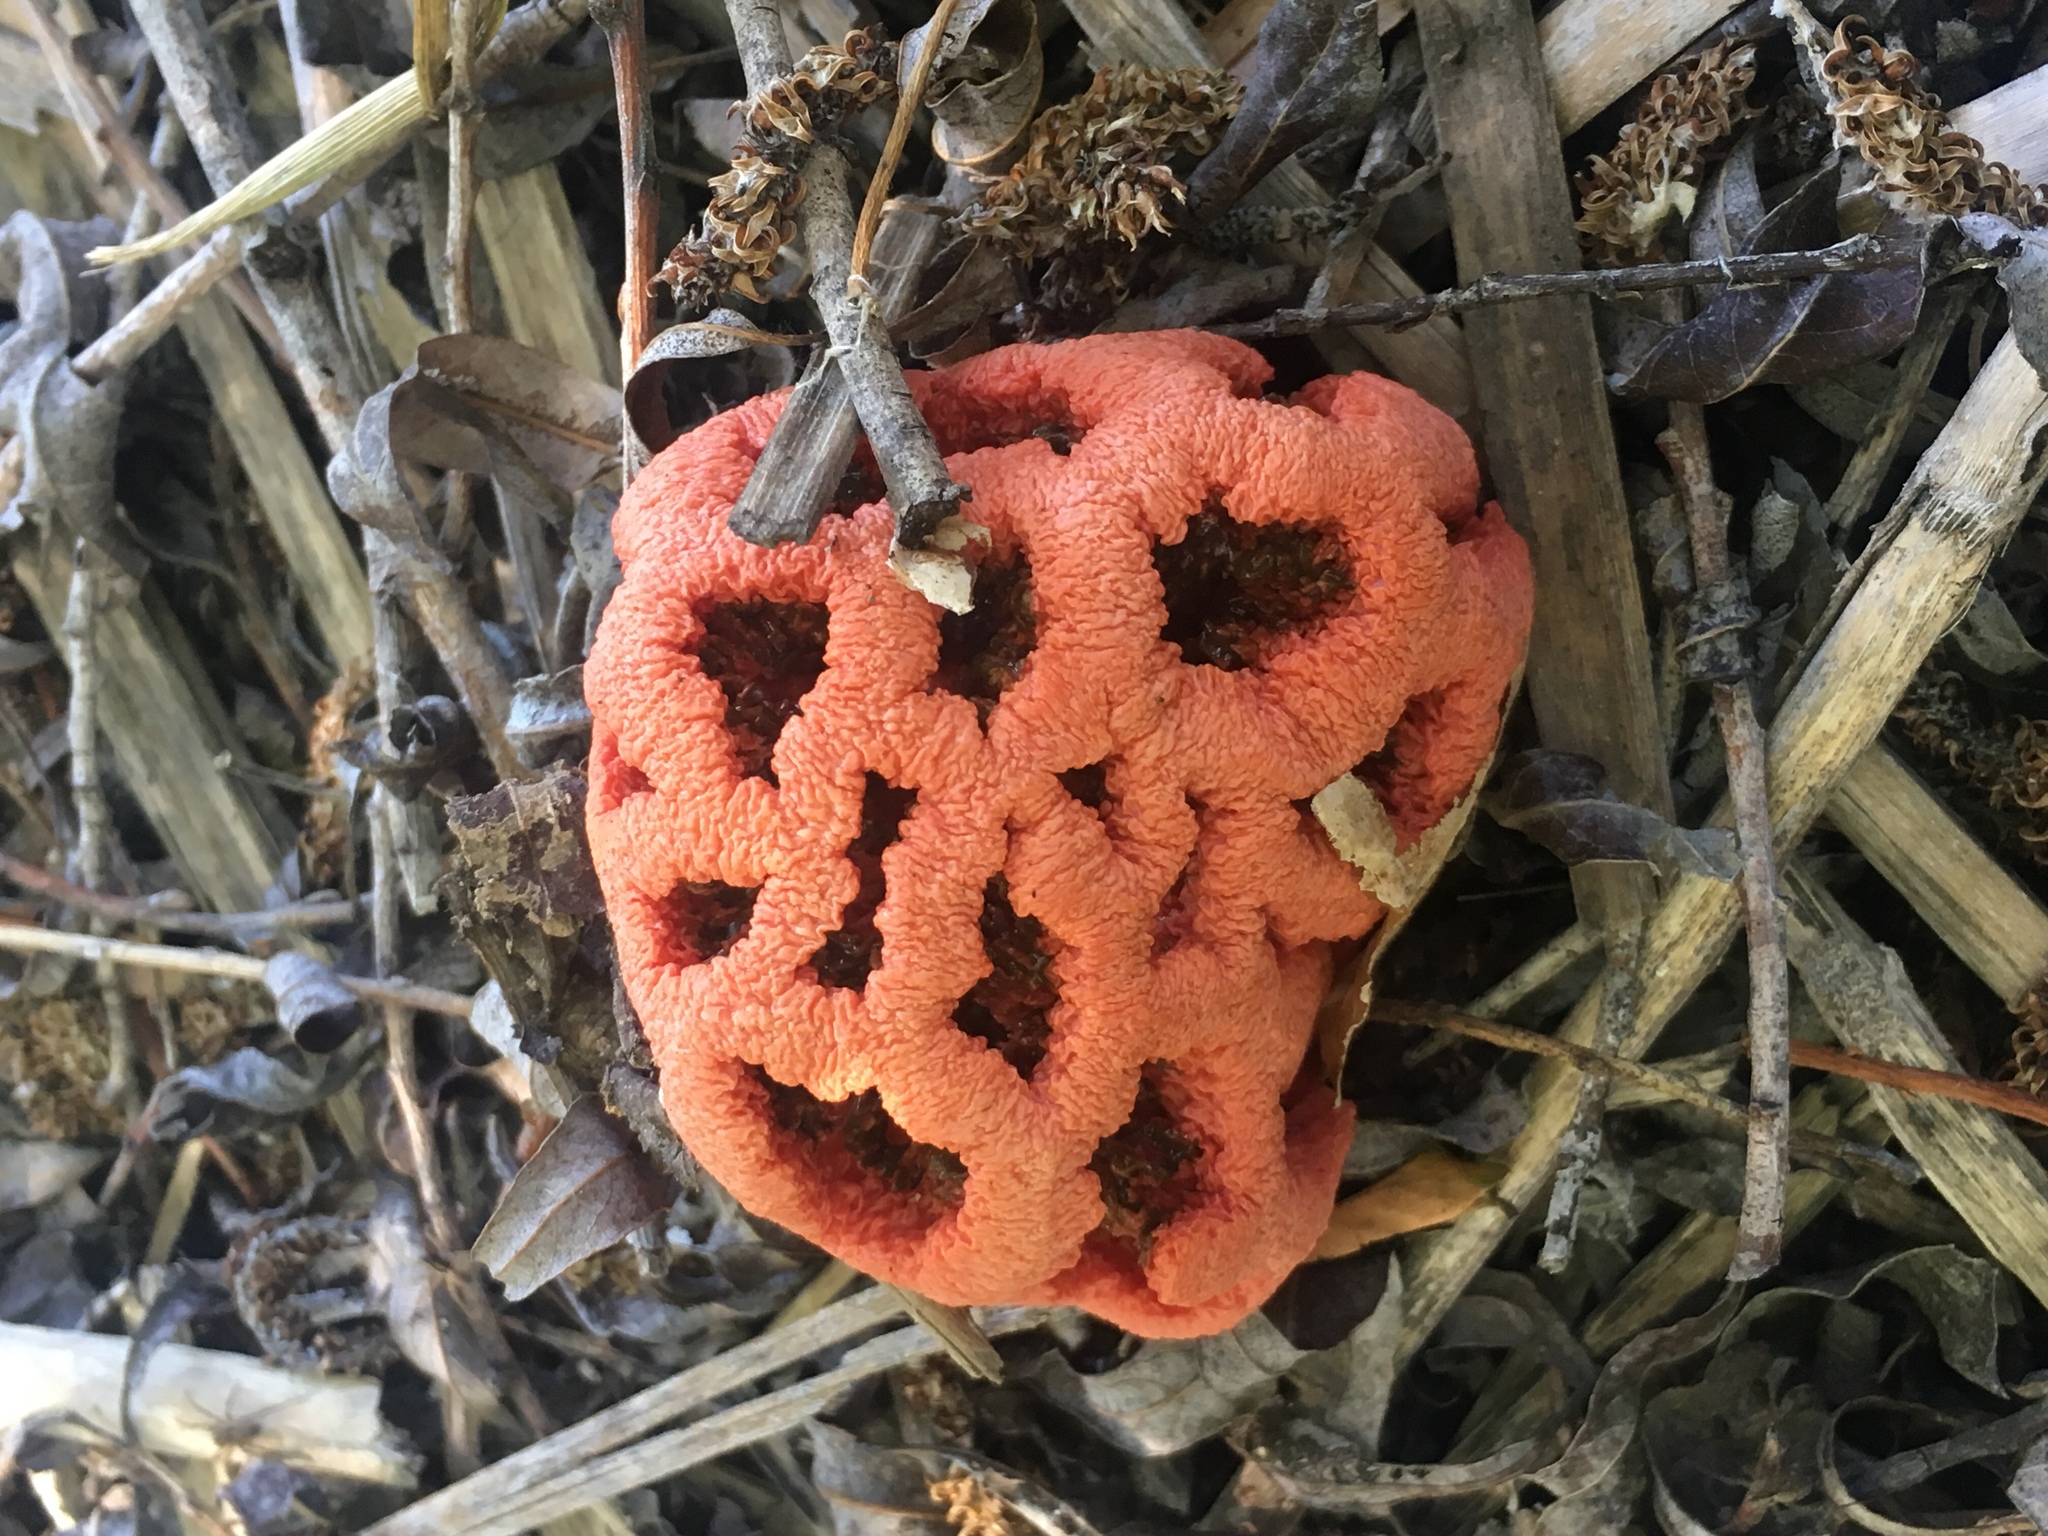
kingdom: Fungi
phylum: Basidiomycota
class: Agaricomycetes
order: Phallales
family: Phallaceae
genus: Clathrus
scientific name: Clathrus ruber
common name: Red cage
